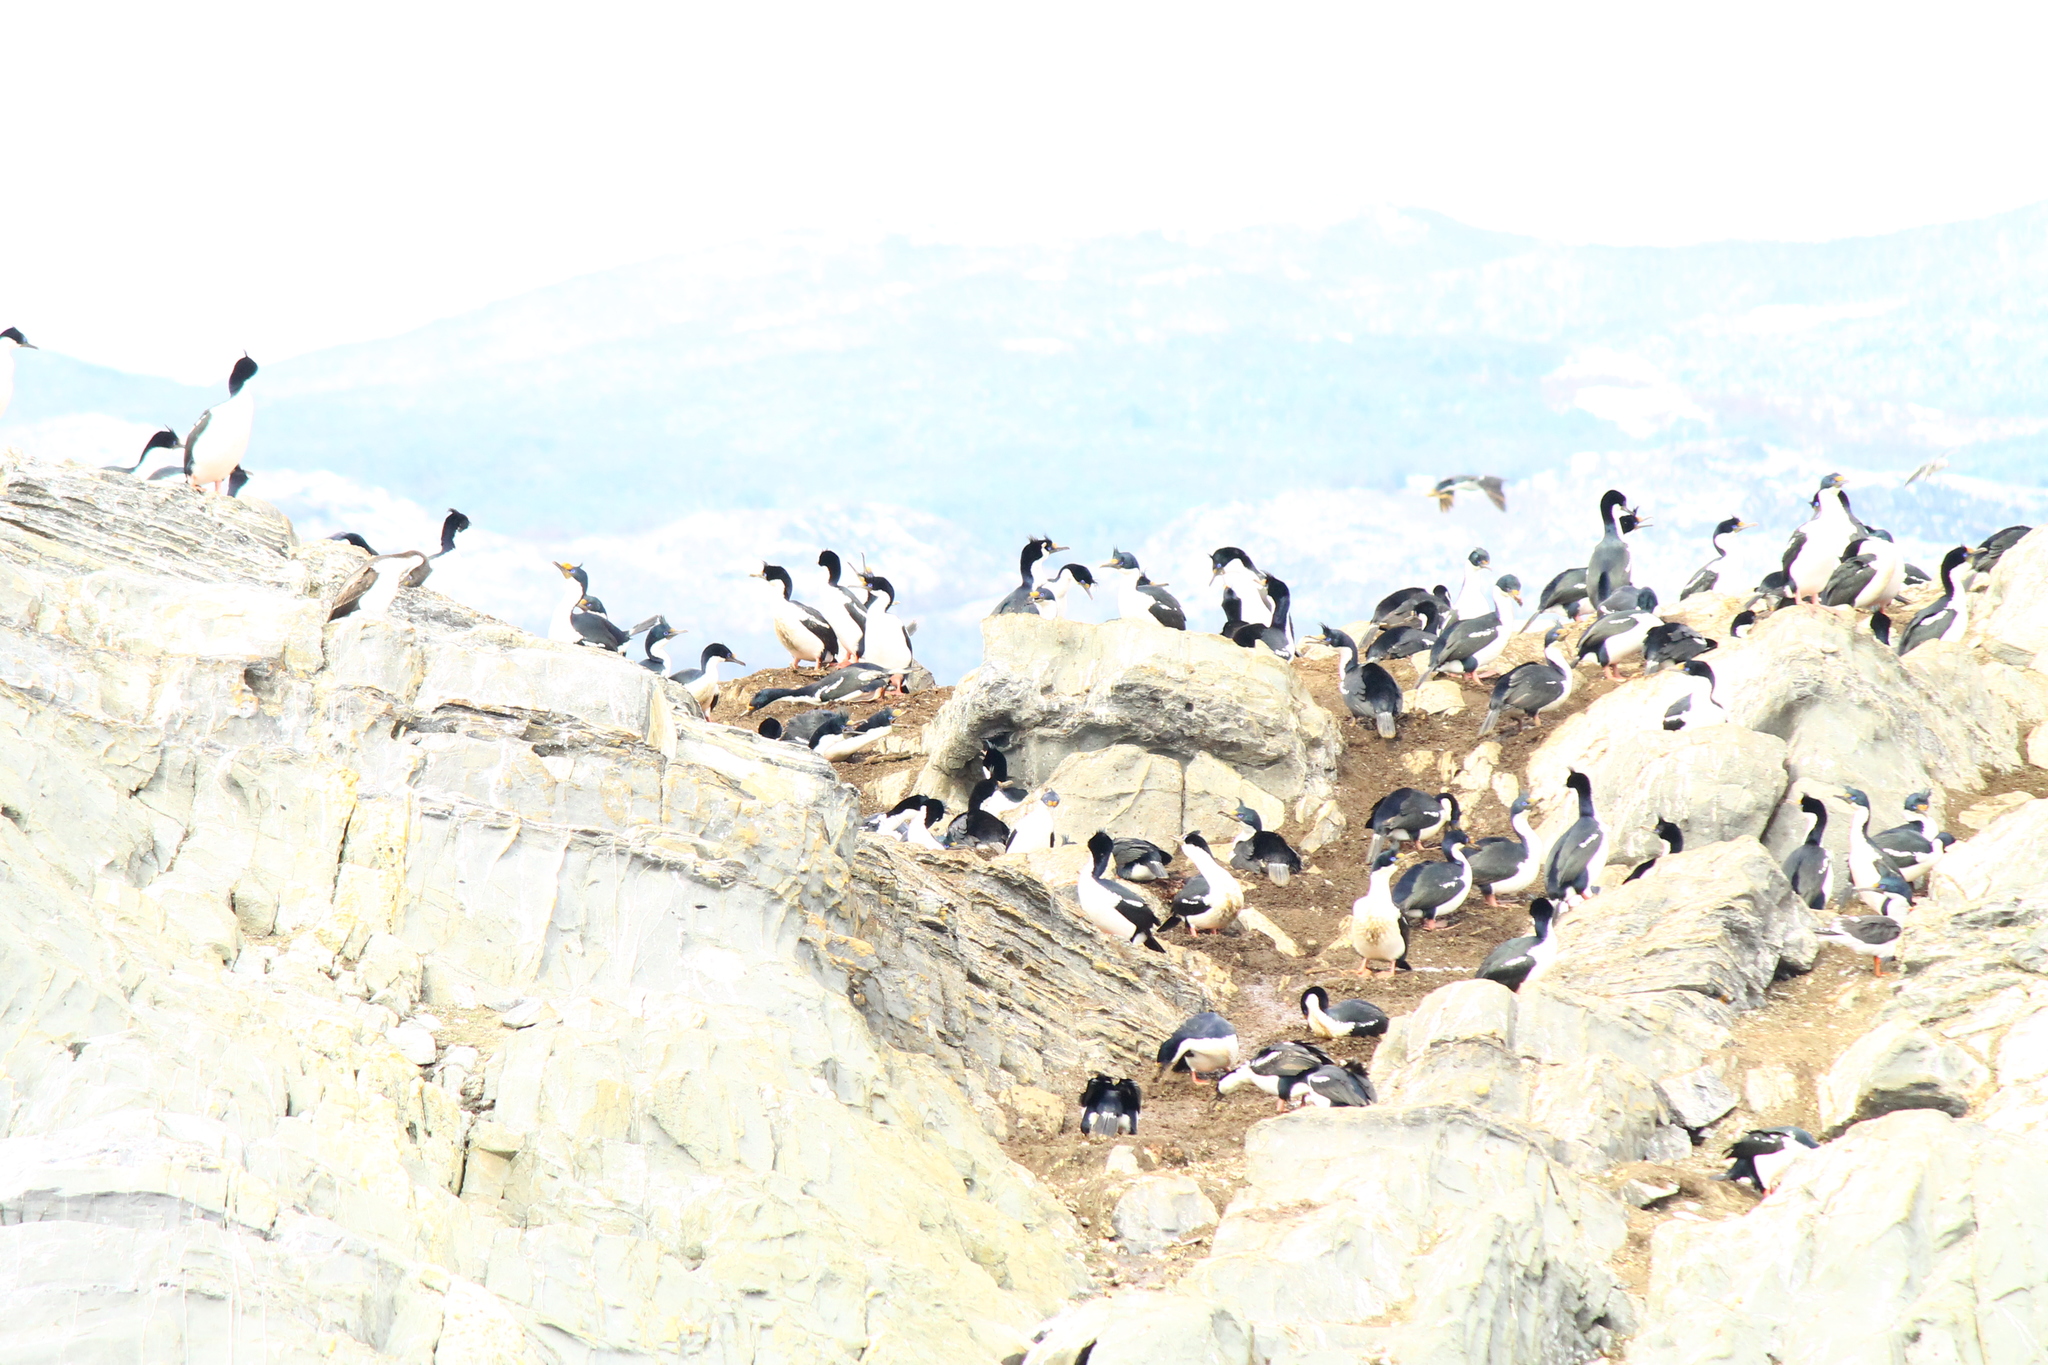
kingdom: Animalia
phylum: Chordata
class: Aves
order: Suliformes
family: Phalacrocoracidae
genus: Leucocarbo
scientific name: Leucocarbo atriceps
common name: Imperial shag
